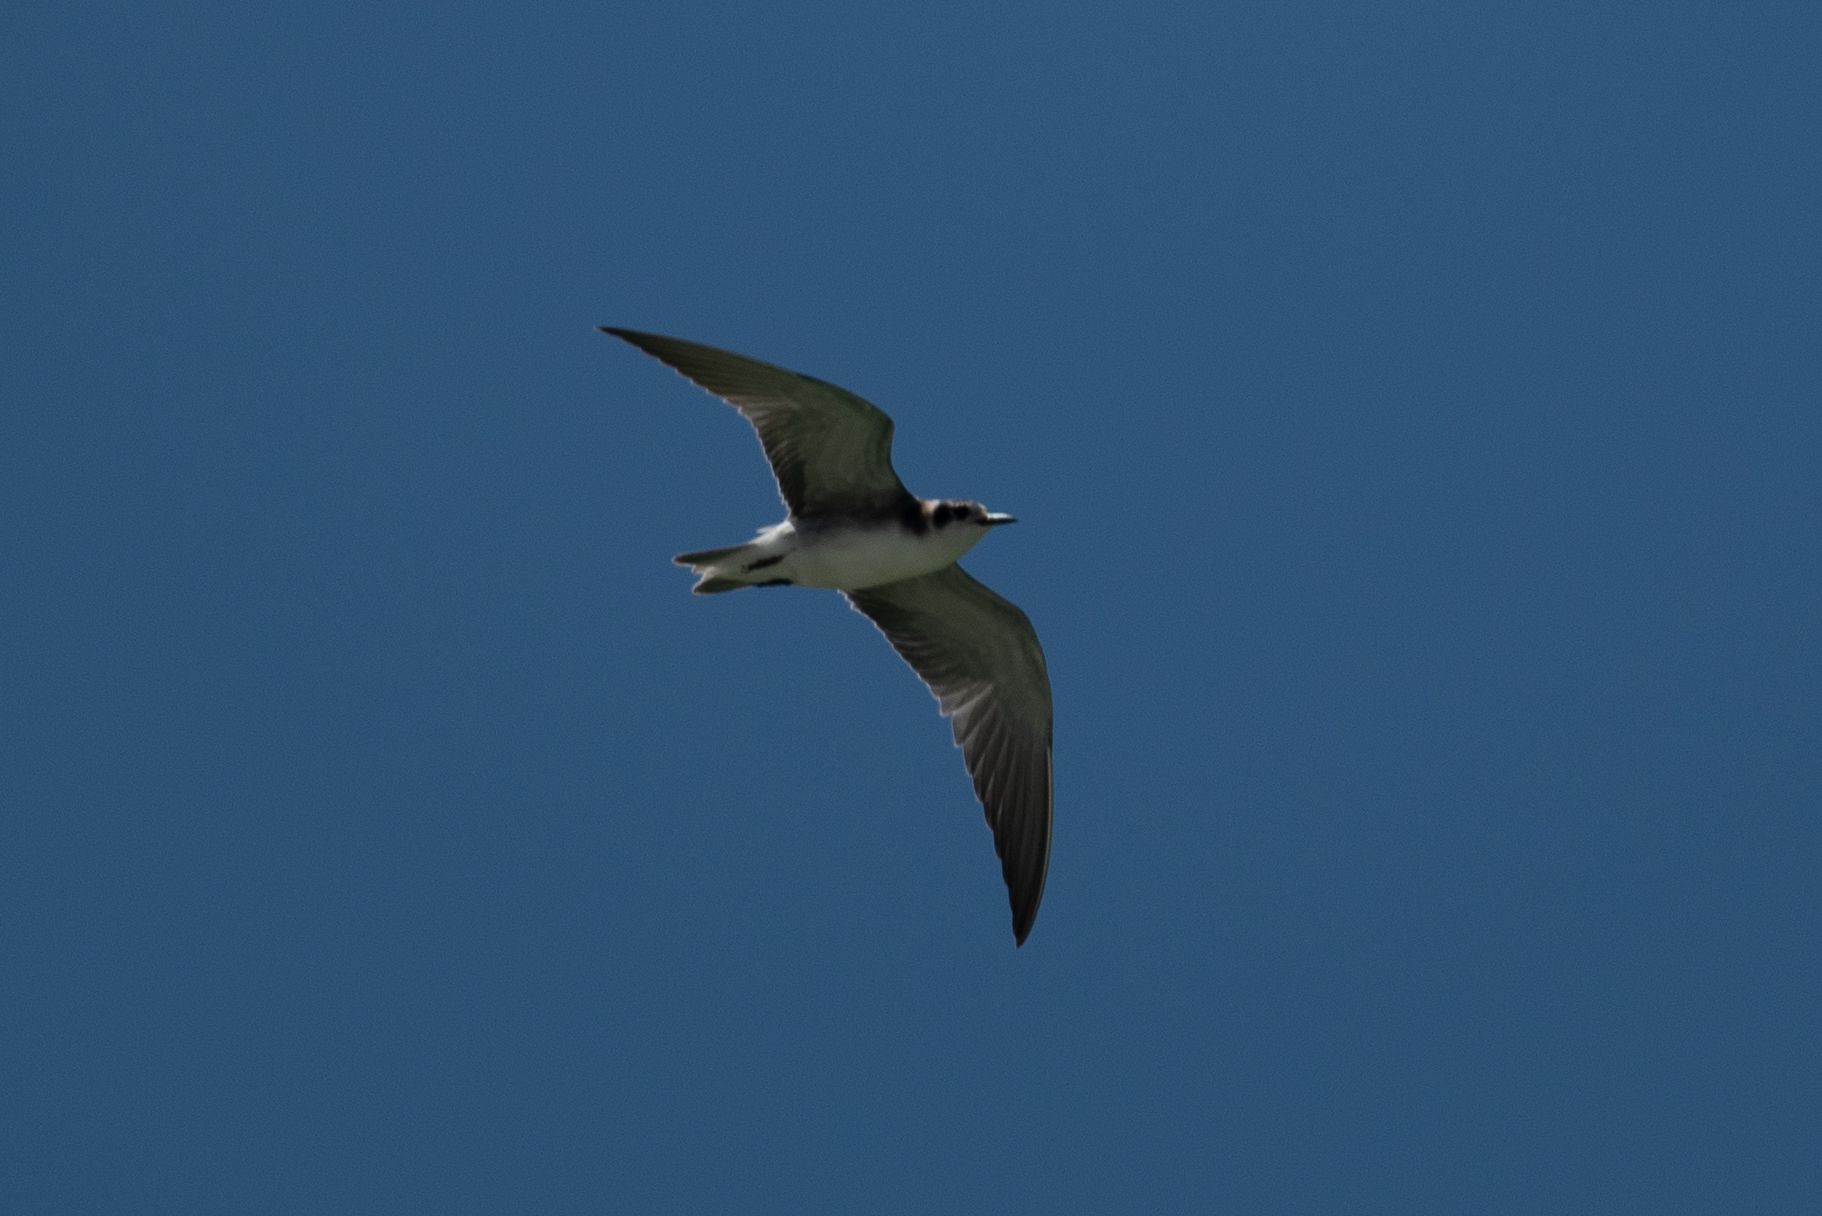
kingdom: Animalia
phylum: Chordata
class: Aves
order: Charadriiformes
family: Laridae
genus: Chlidonias
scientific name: Chlidonias niger
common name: Black tern
